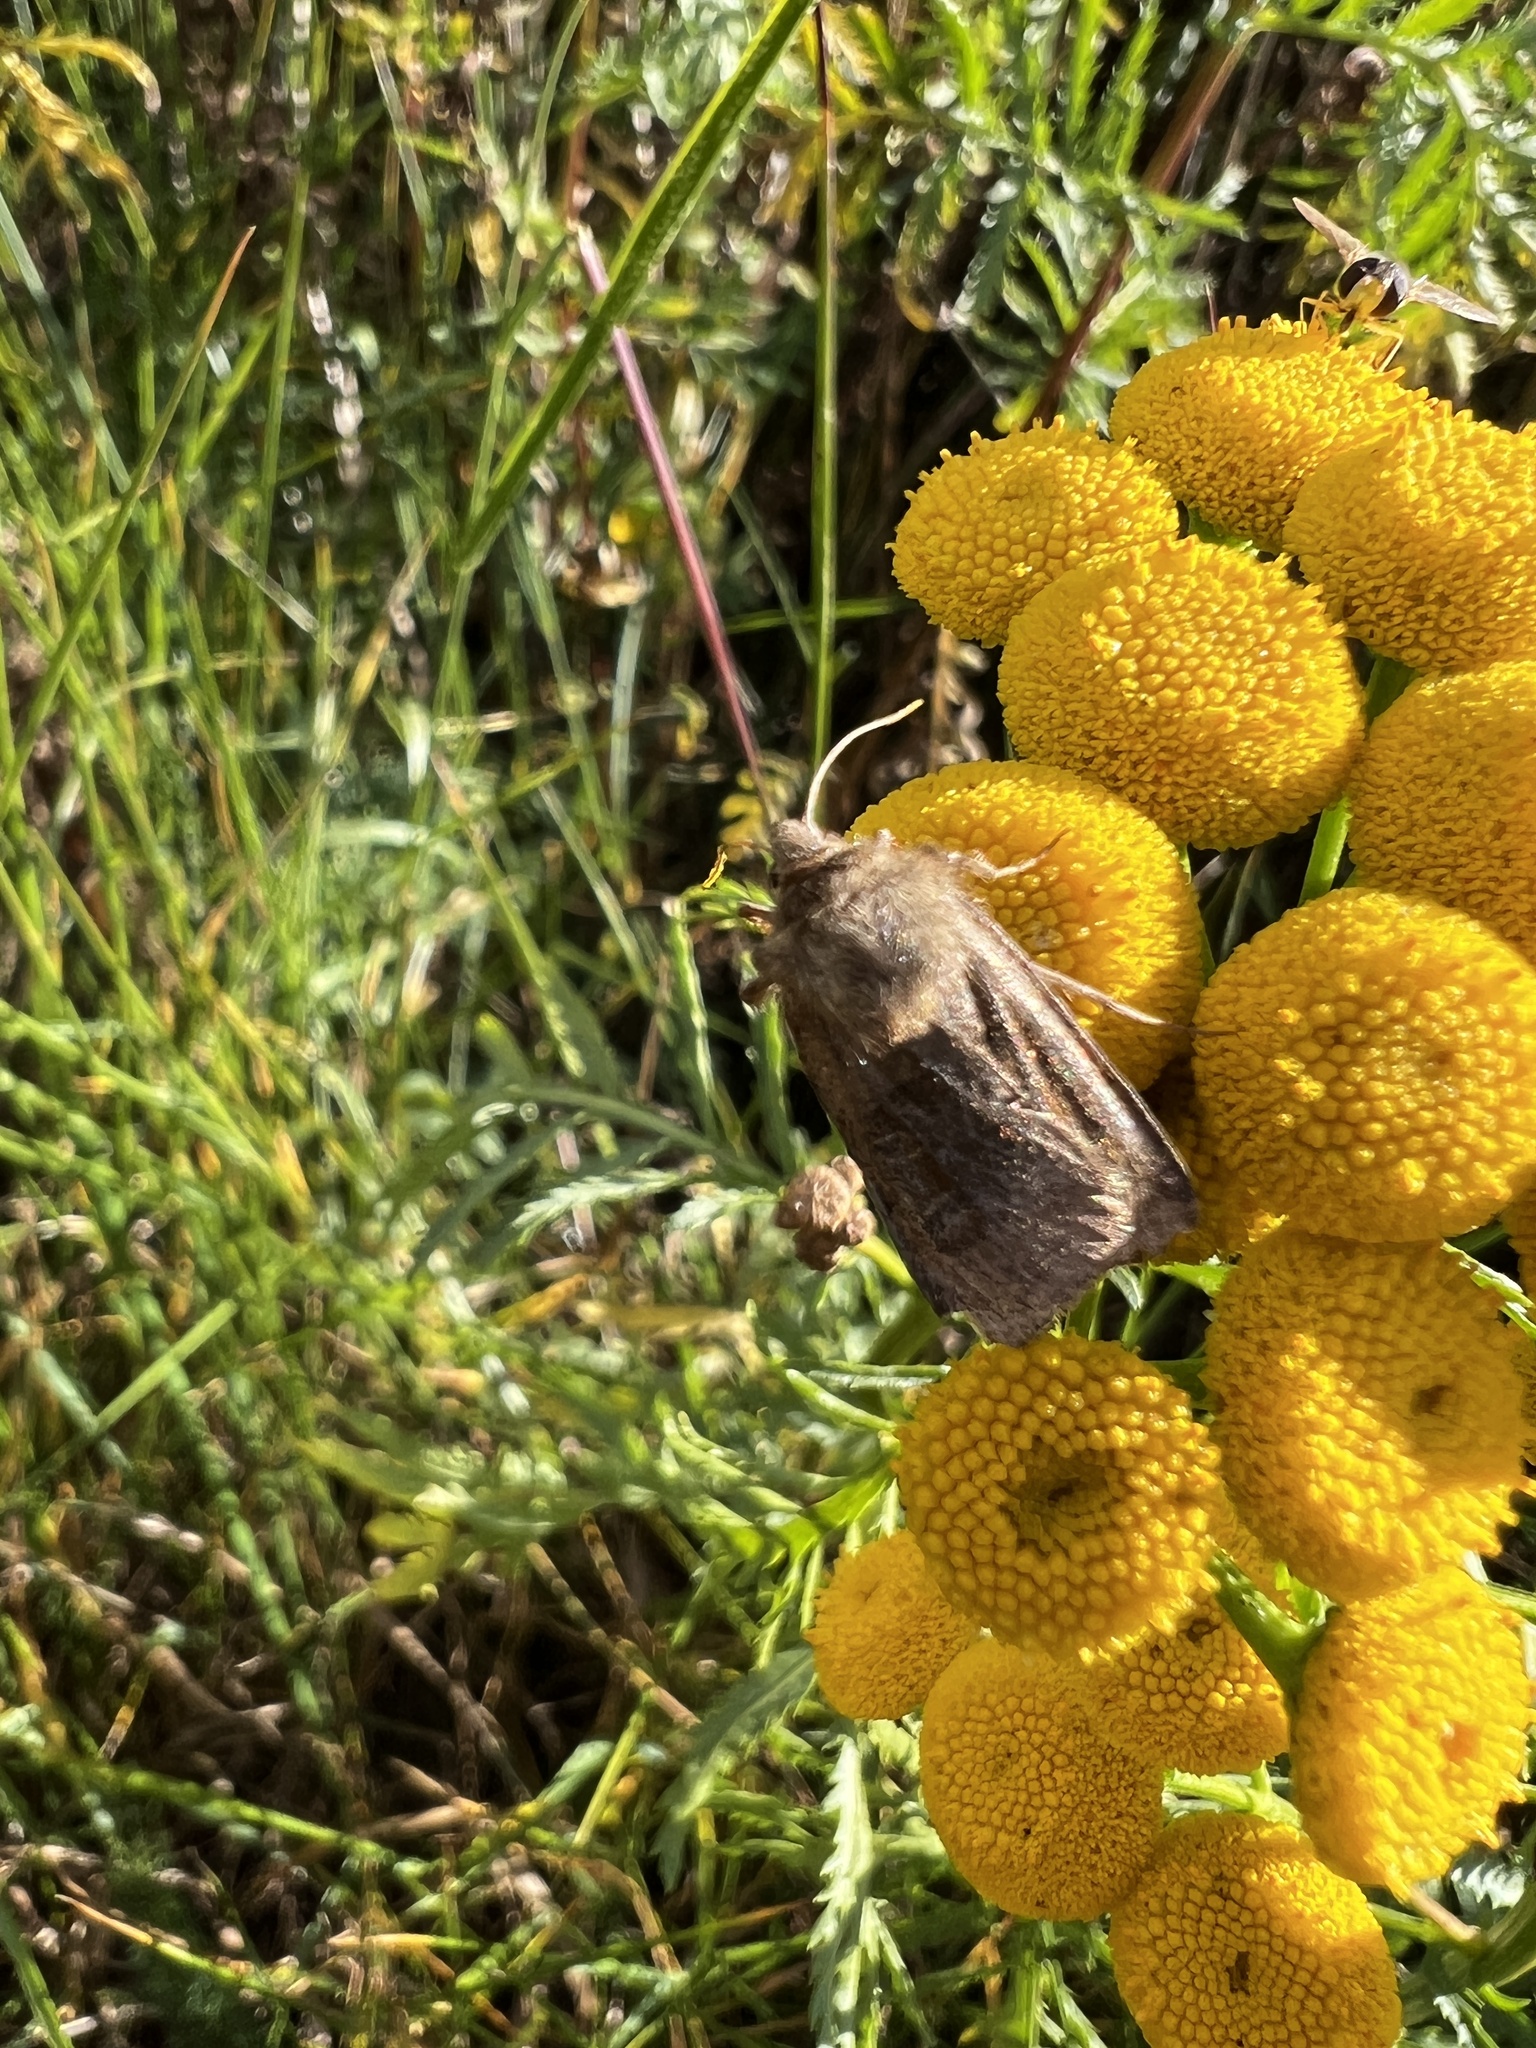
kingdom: Animalia
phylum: Arthropoda
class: Insecta
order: Lepidoptera
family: Noctuidae
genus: Chersotis
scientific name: Chersotis cuprea
